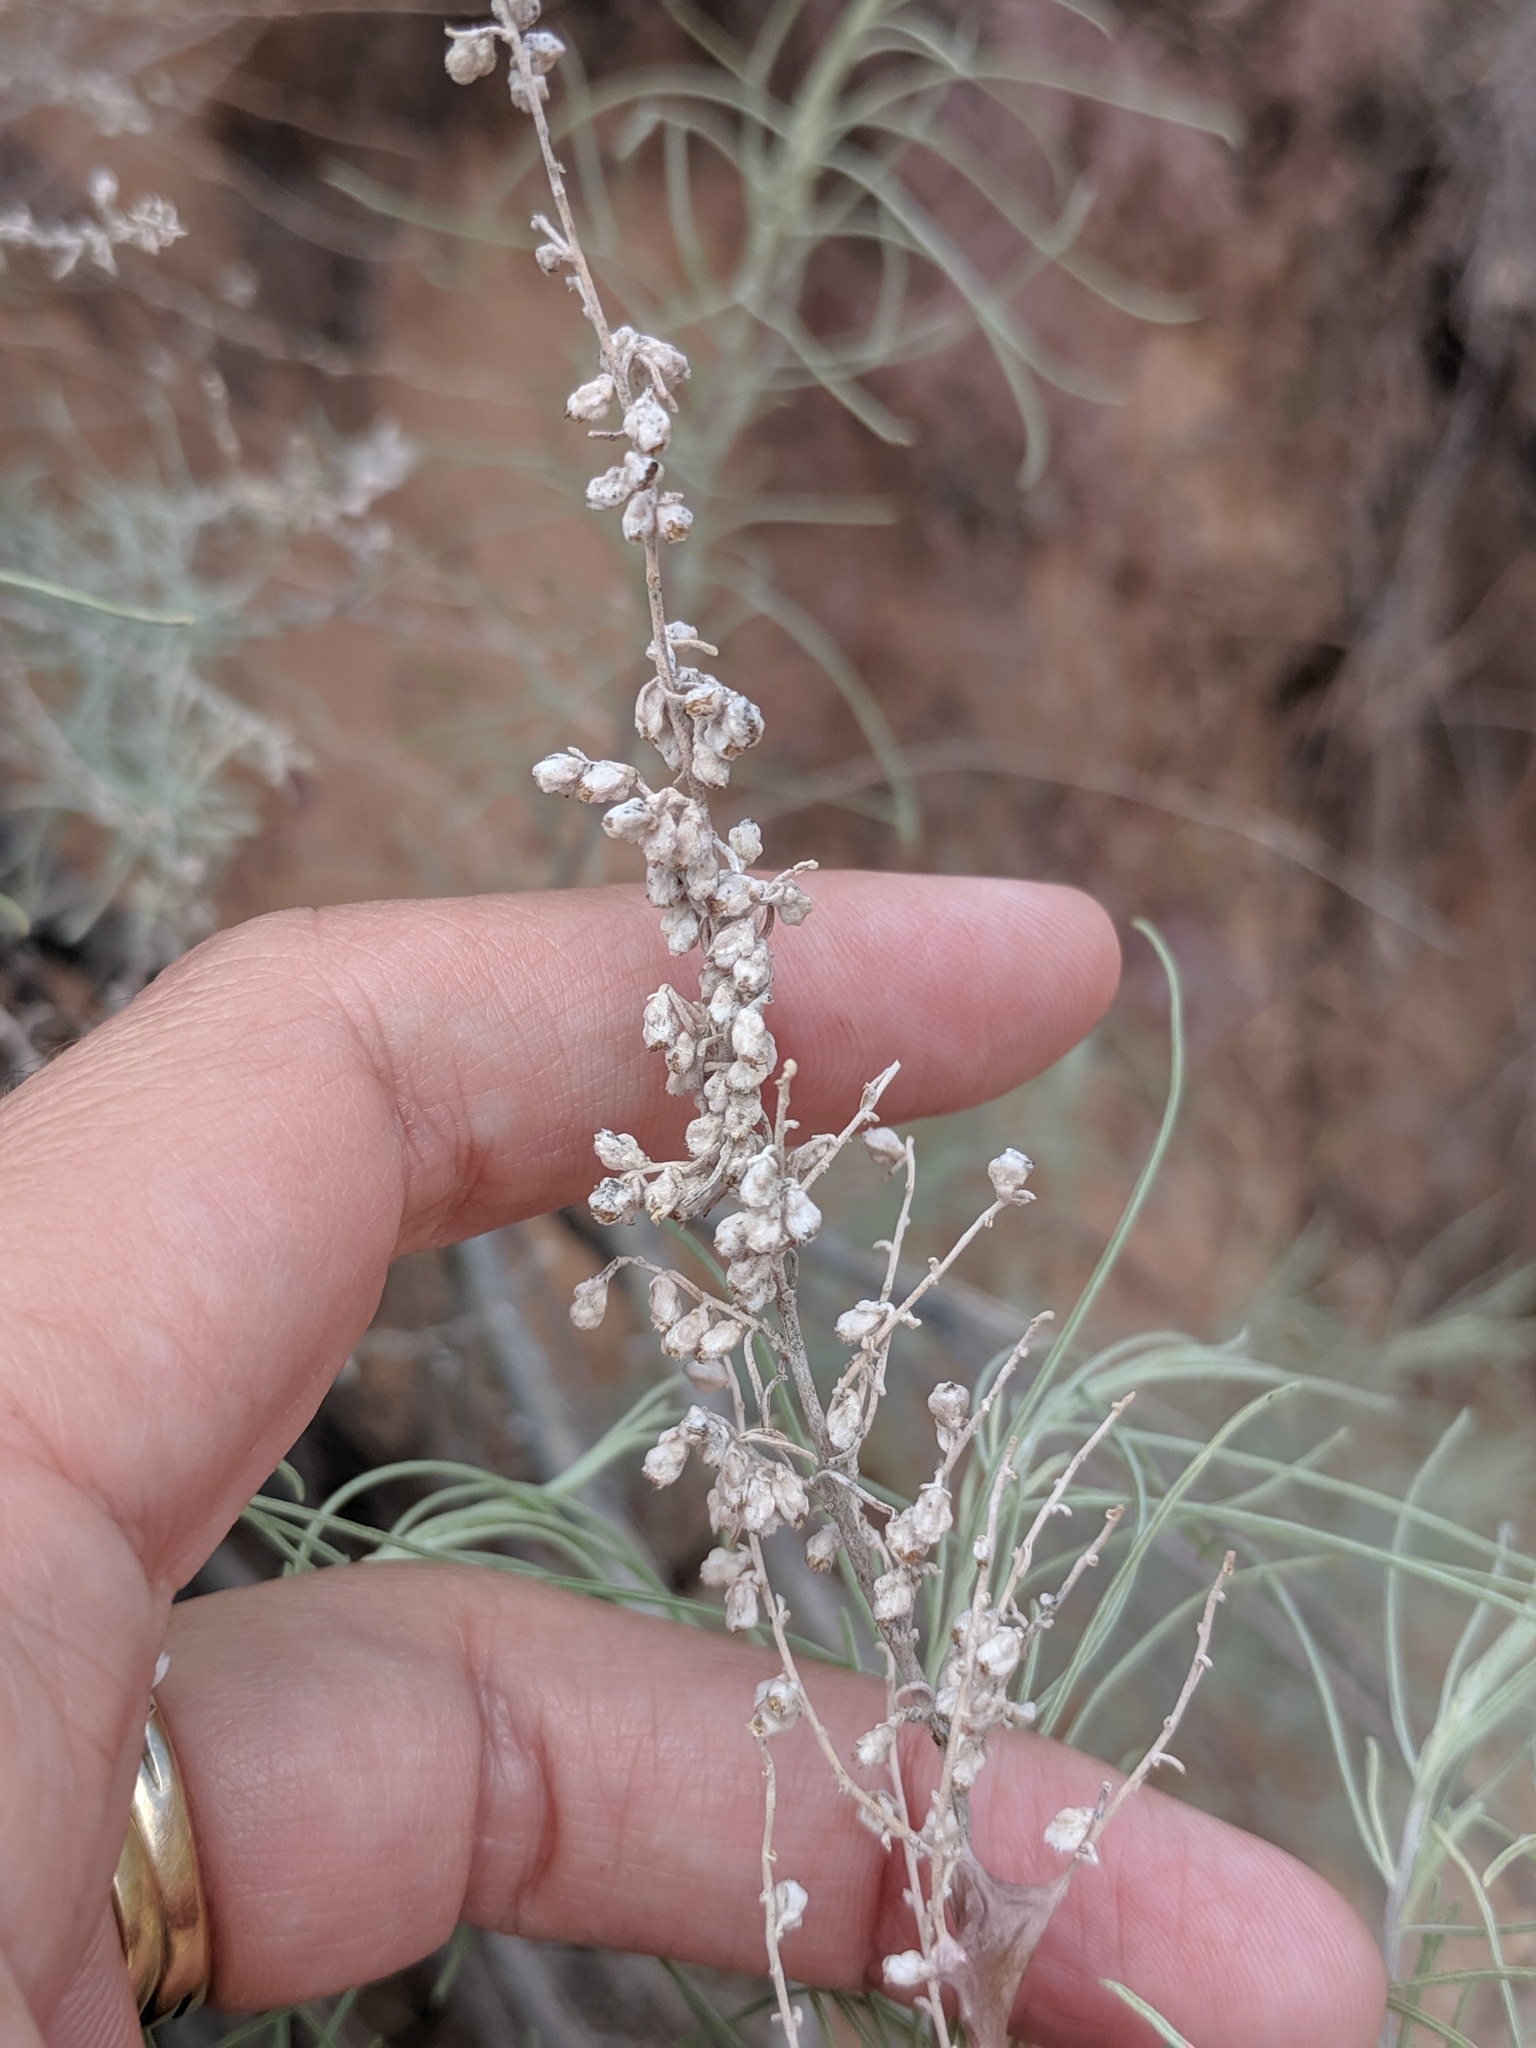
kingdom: Plantae
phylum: Tracheophyta
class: Magnoliopsida
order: Asterales
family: Asteraceae
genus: Artemisia
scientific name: Artemisia filifolia
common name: Sand-sage
